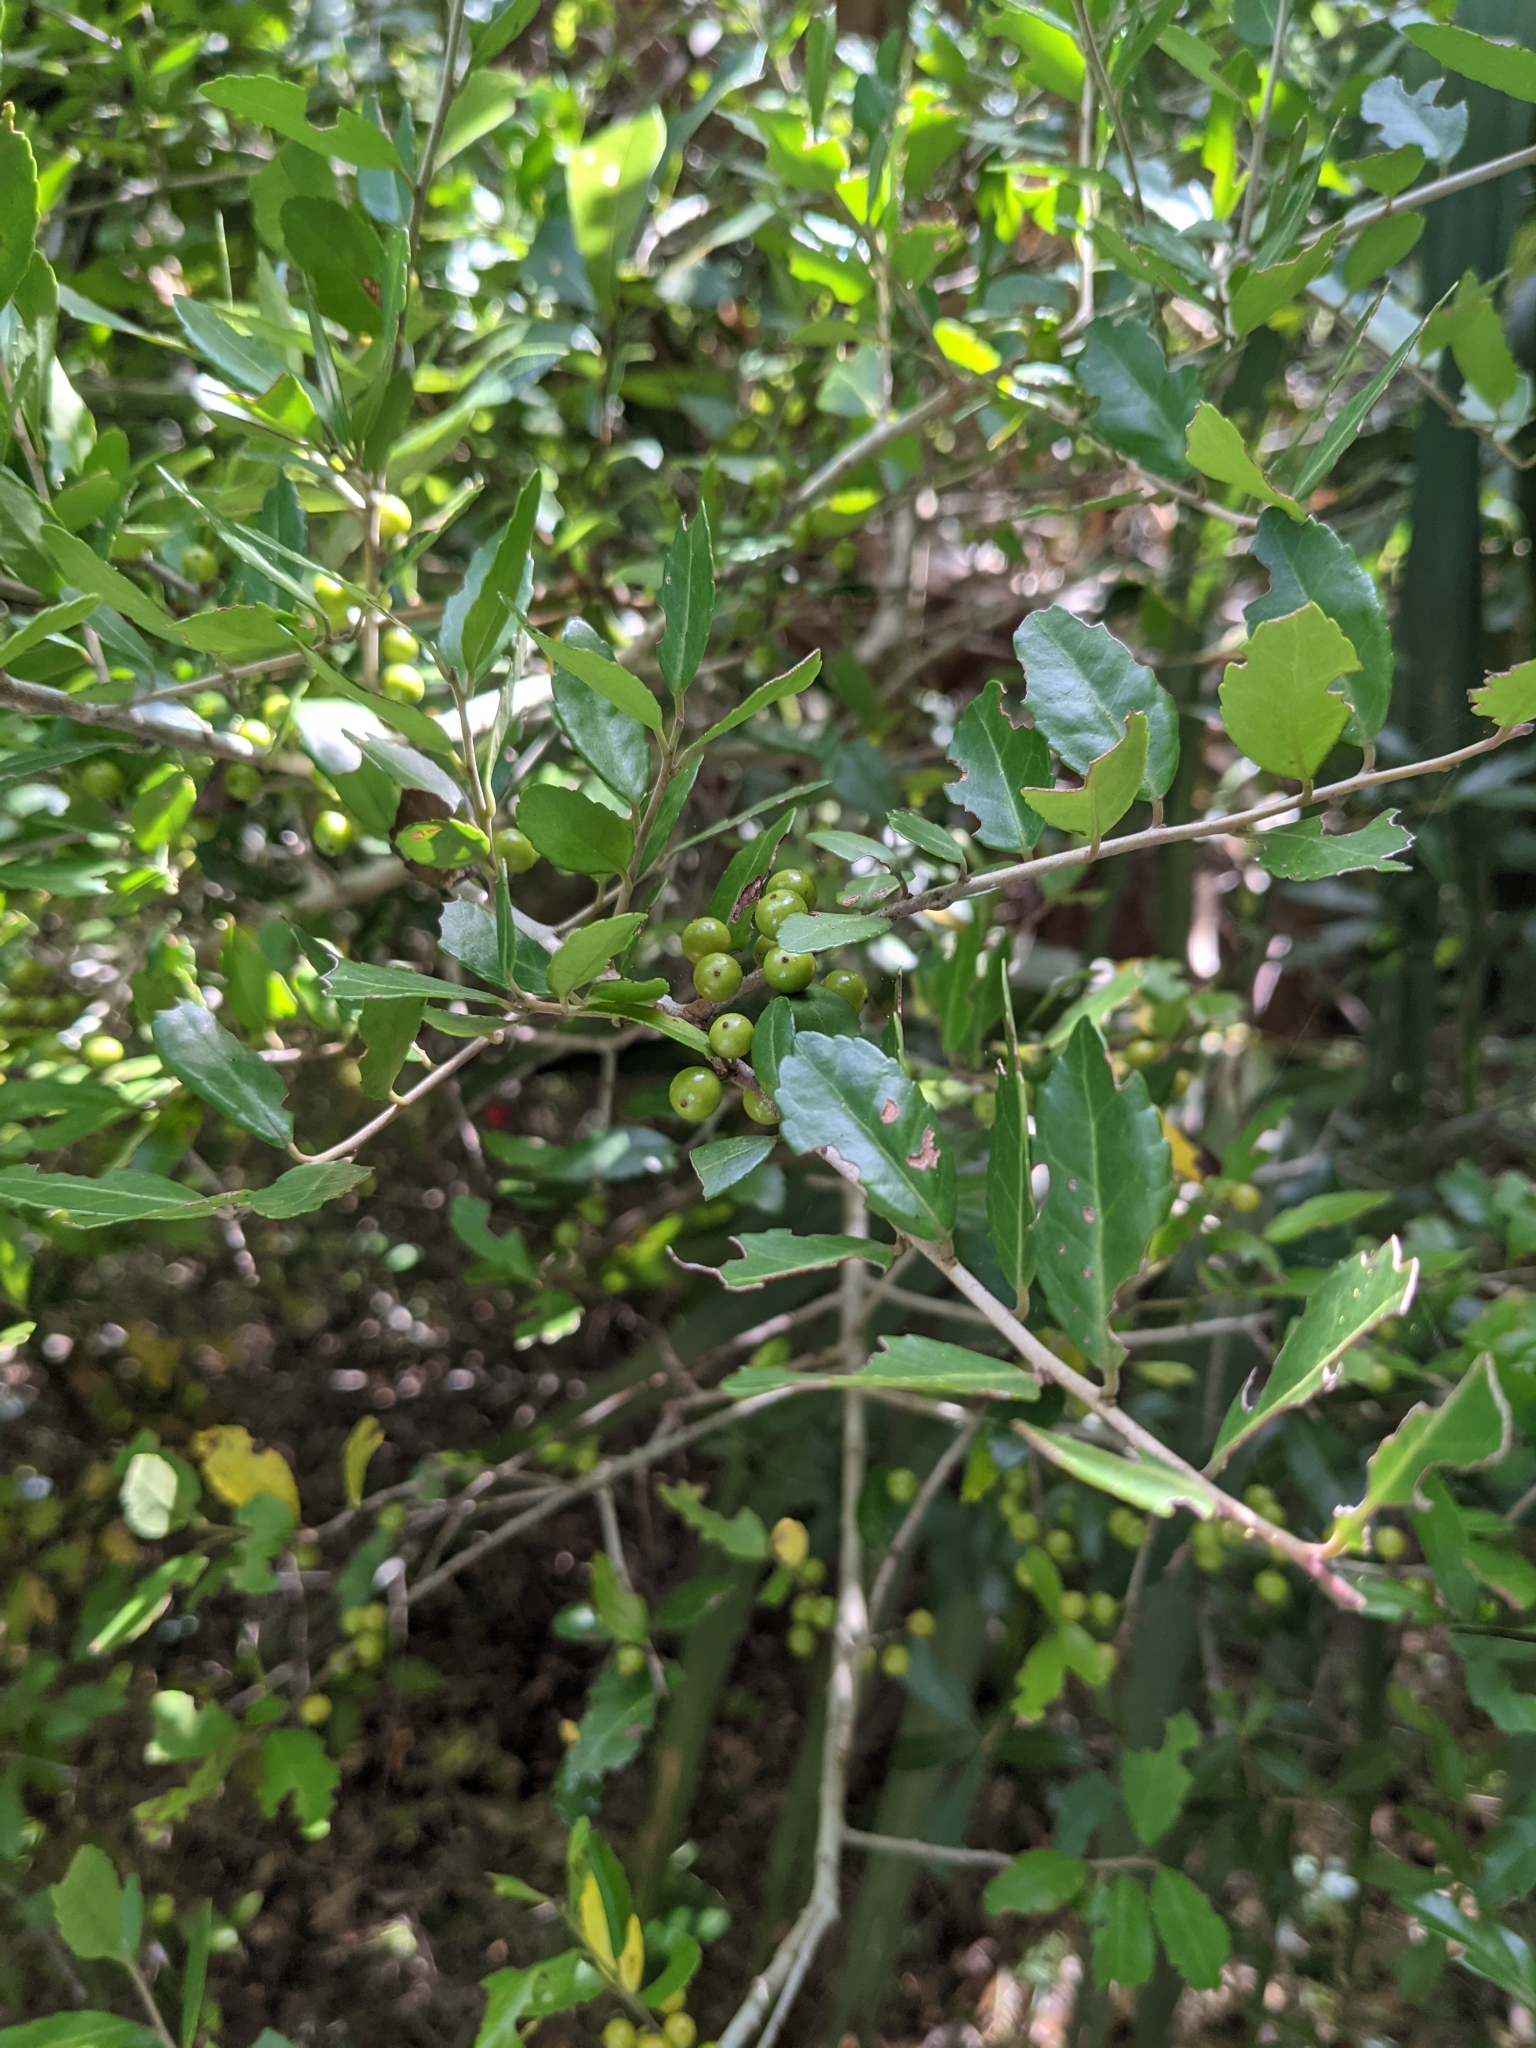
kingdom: Plantae
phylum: Tracheophyta
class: Magnoliopsida
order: Aquifoliales
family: Aquifoliaceae
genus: Ilex
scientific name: Ilex vomitoria
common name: Yaupon holly
